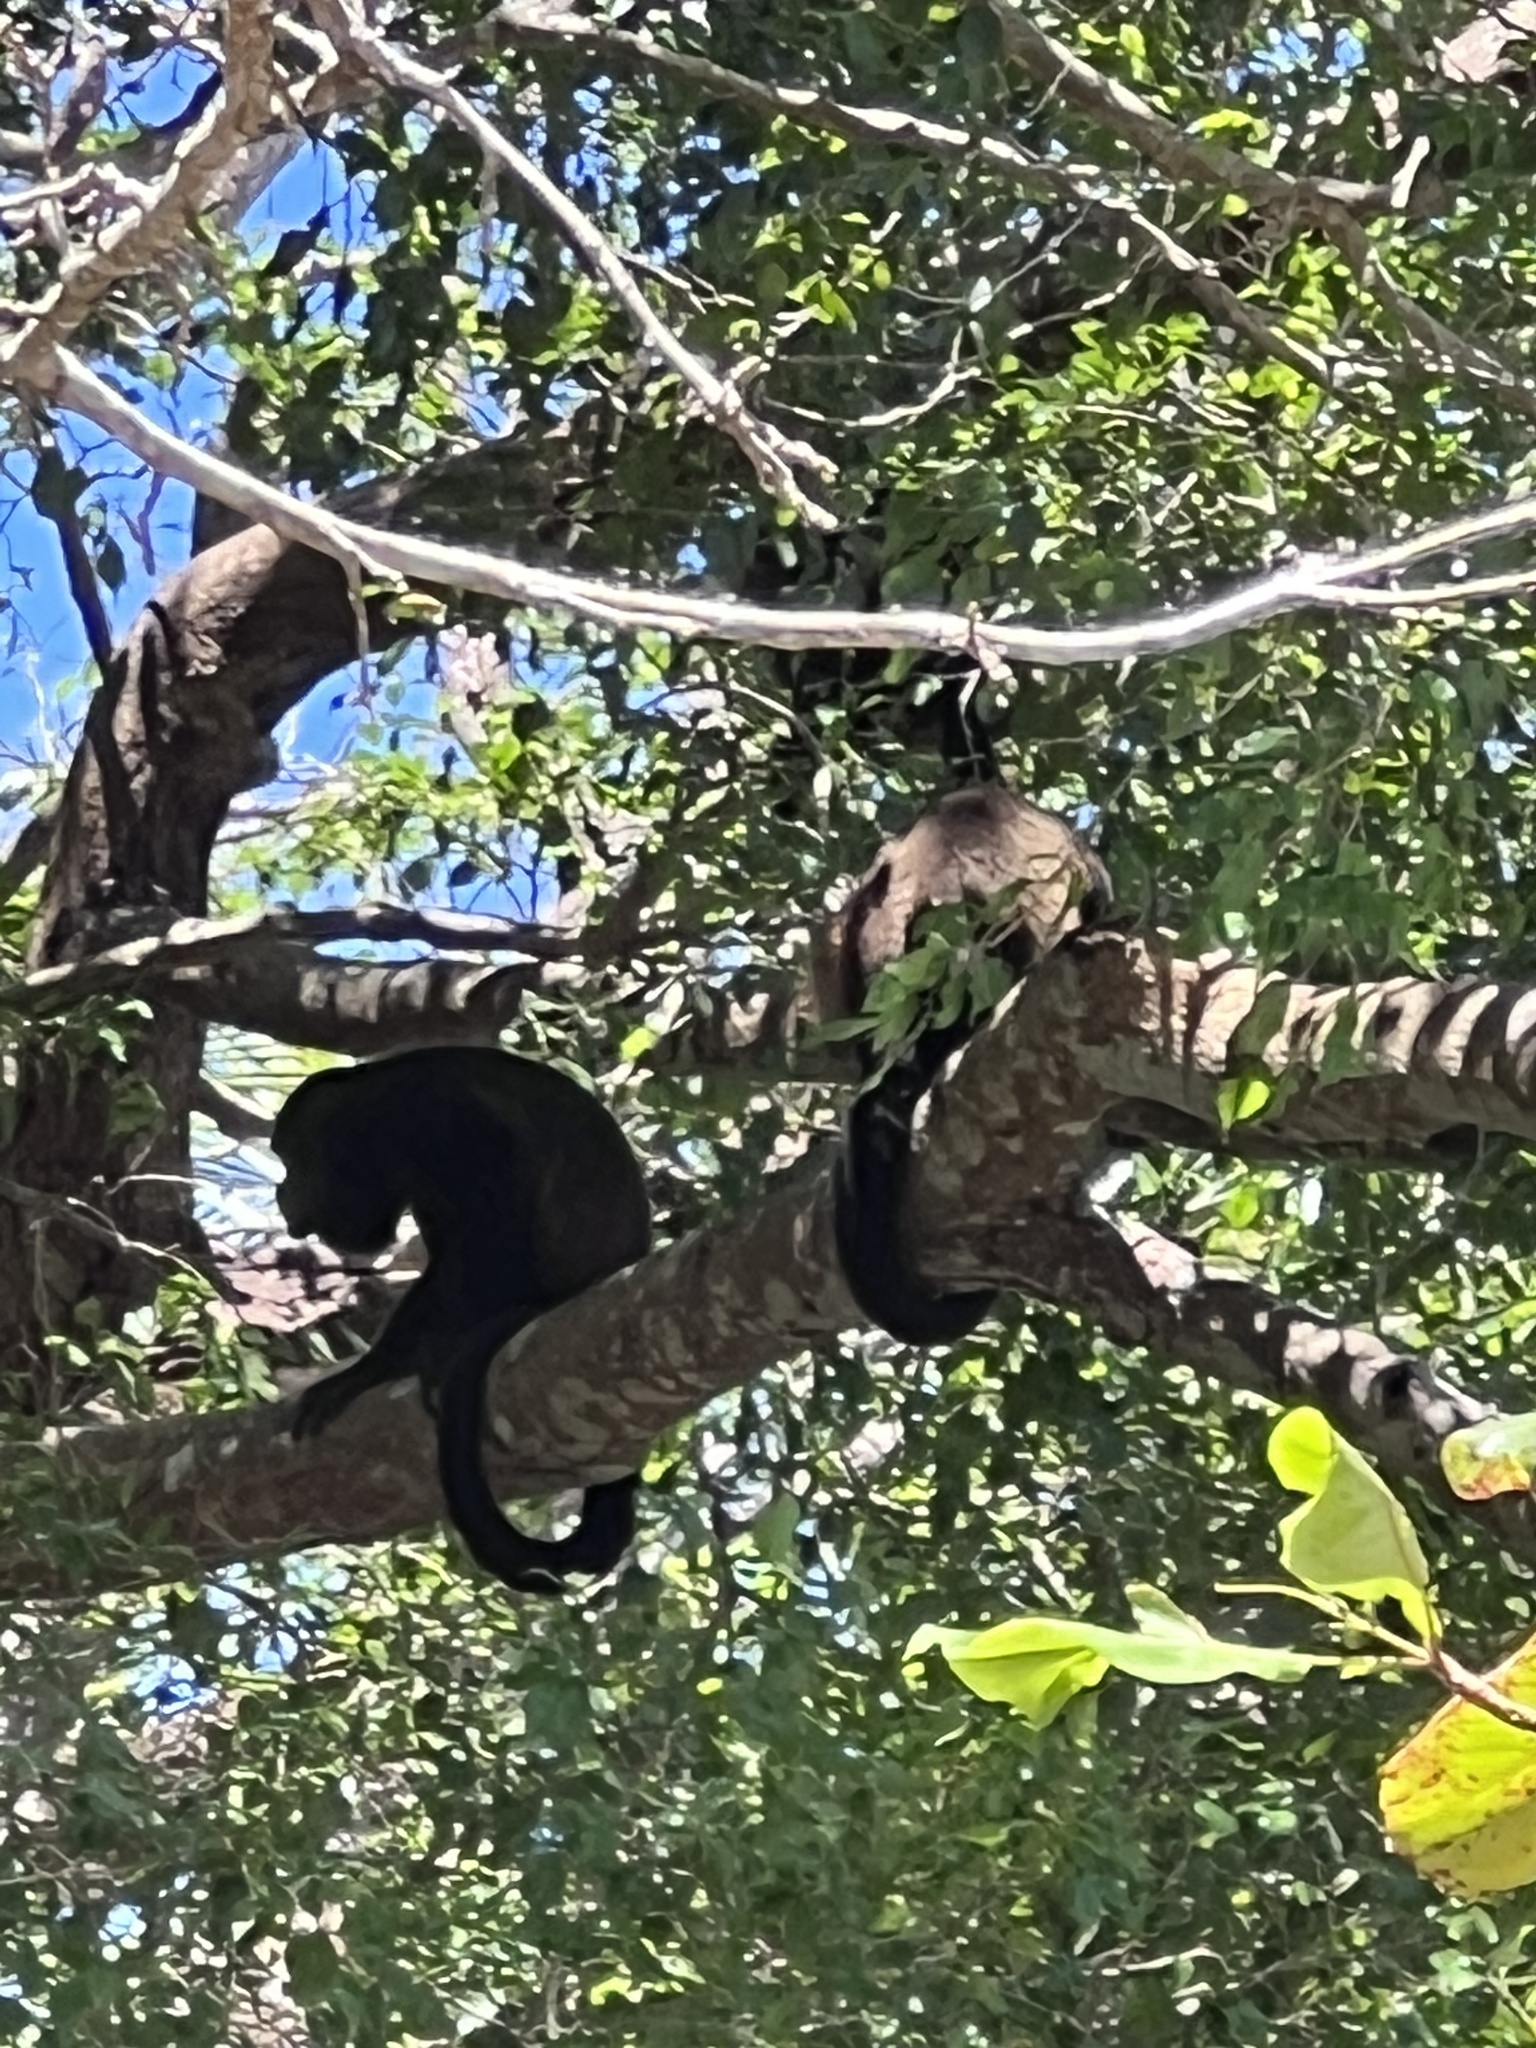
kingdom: Animalia
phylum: Chordata
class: Mammalia
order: Primates
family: Atelidae
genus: Alouatta
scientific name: Alouatta palliata
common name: Mantled howler
